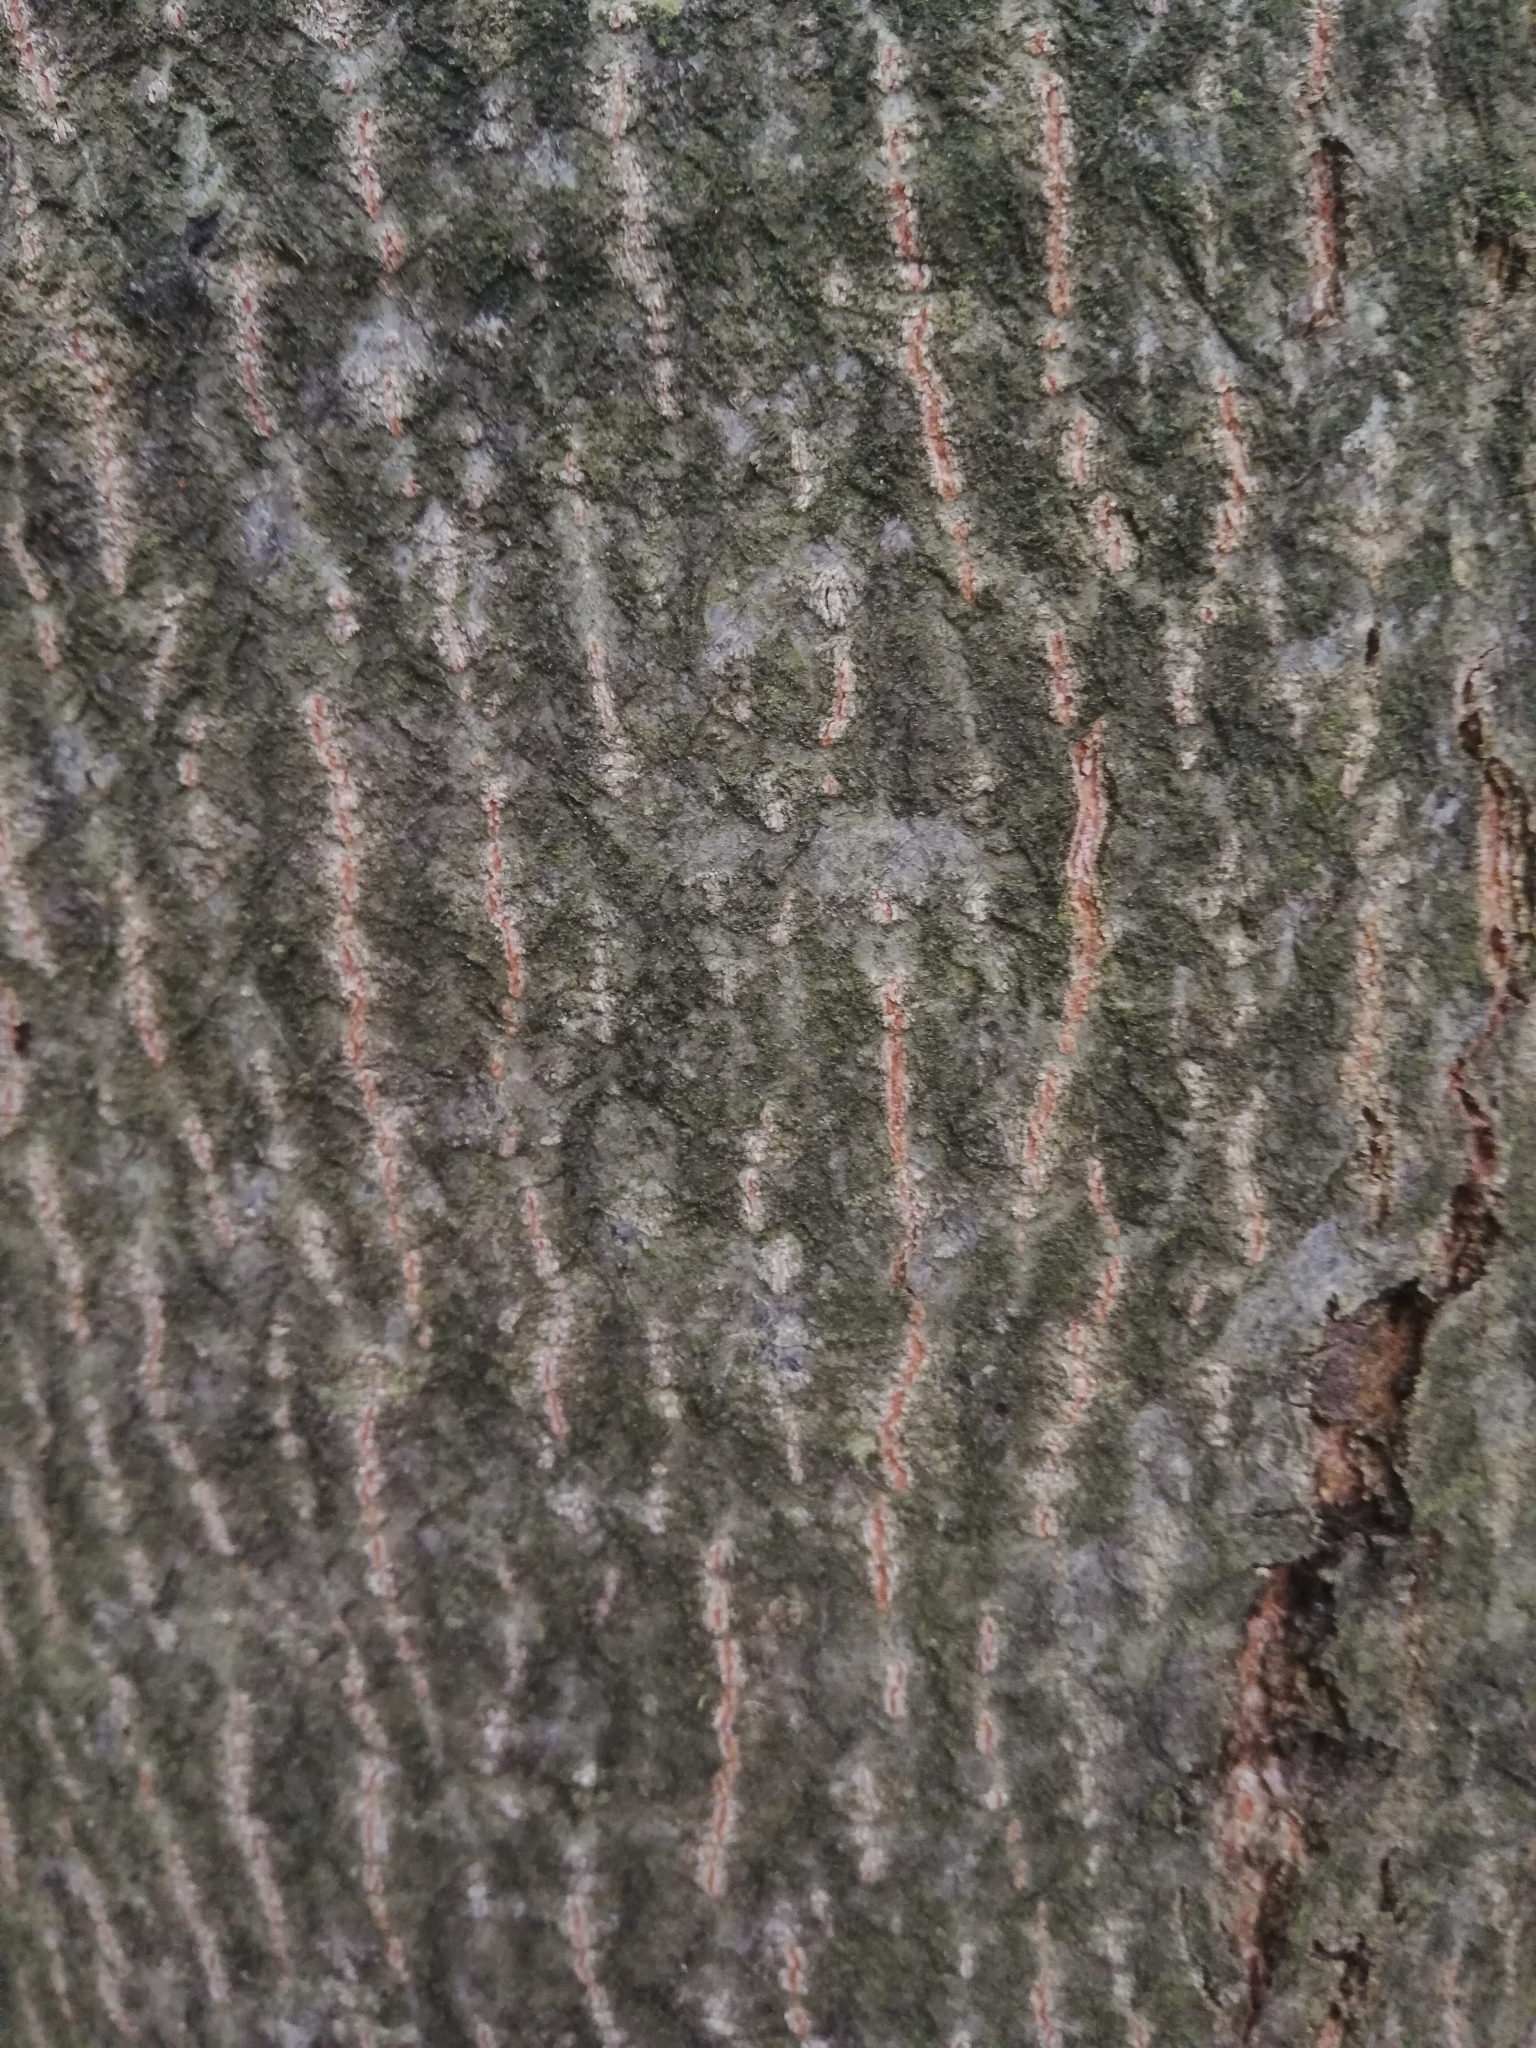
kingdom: Plantae
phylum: Tracheophyta
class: Magnoliopsida
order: Fagales
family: Fagaceae
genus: Quercus
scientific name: Quercus rubra
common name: Red oak
